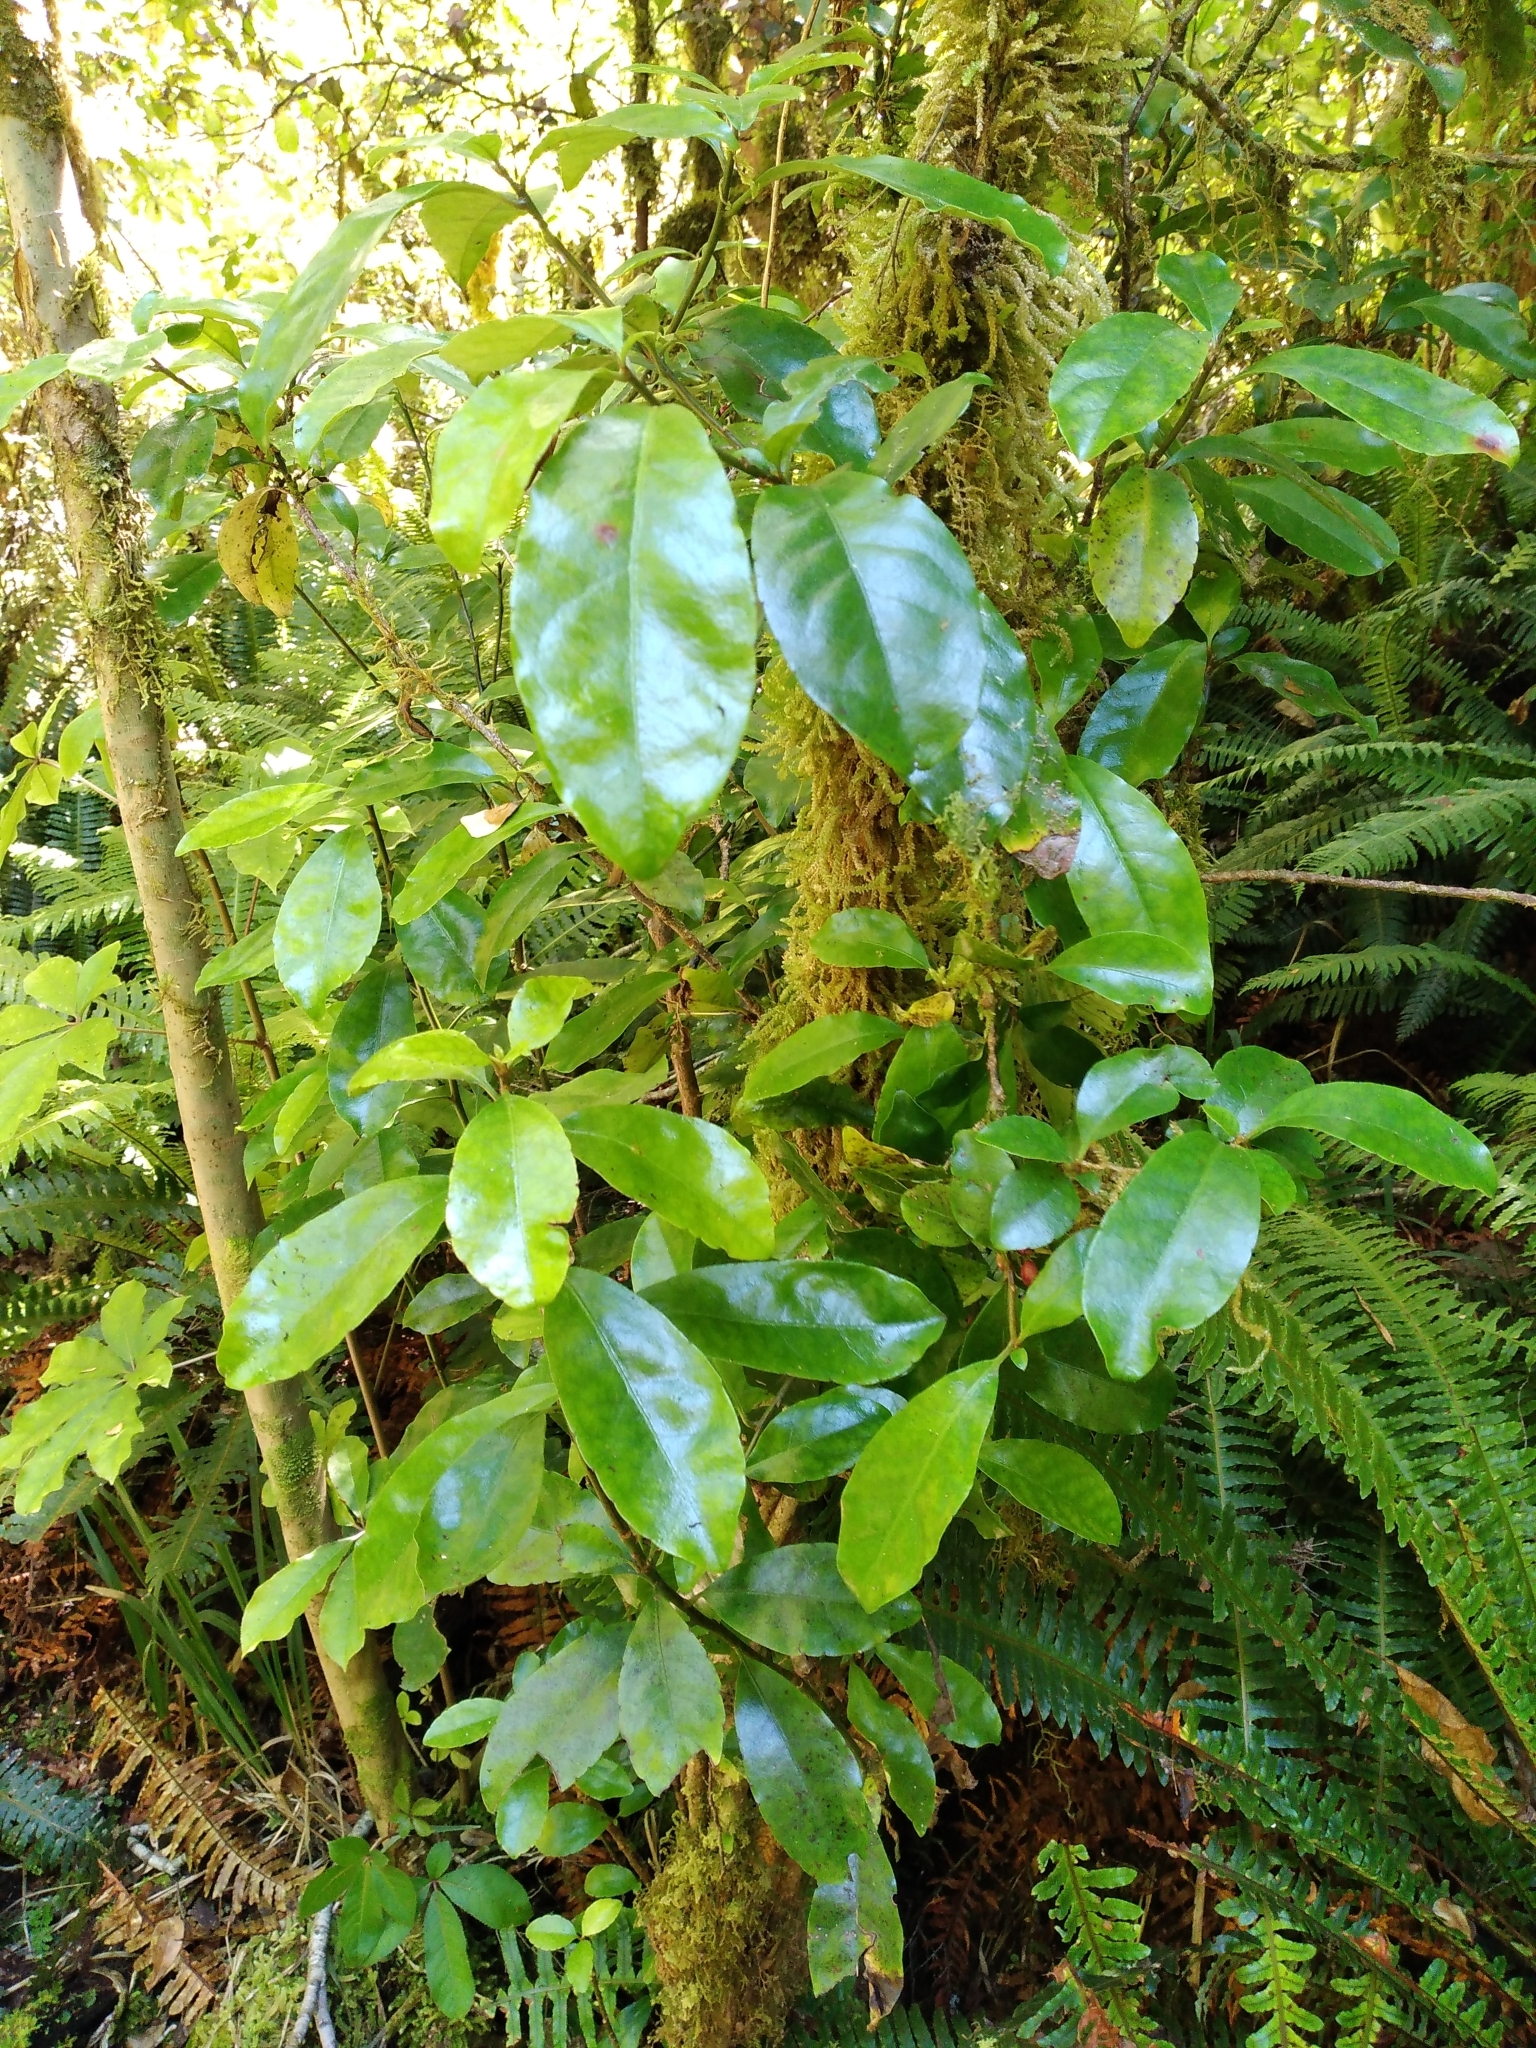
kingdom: Plantae
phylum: Tracheophyta
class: Magnoliopsida
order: Asterales
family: Alseuosmiaceae
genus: Alseuosmia
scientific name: Alseuosmia macrophylla
